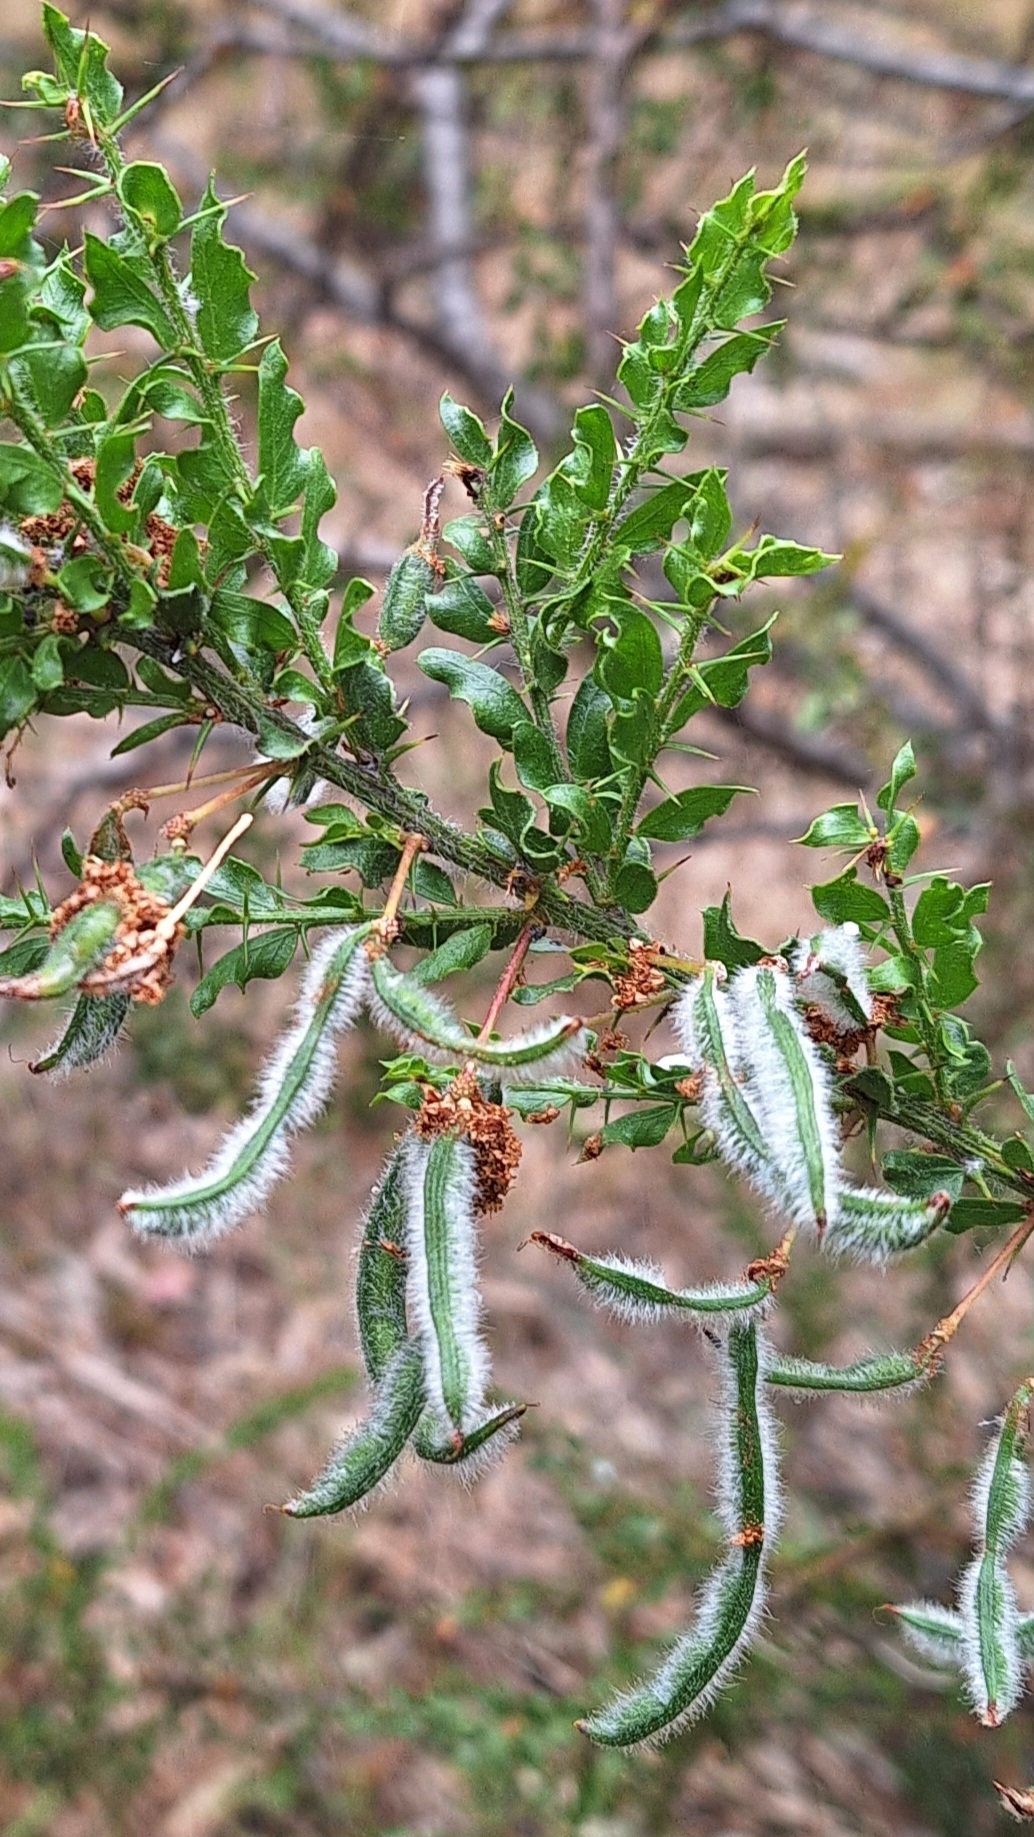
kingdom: Plantae
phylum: Tracheophyta
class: Magnoliopsida
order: Fabales
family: Fabaceae
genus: Acacia
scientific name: Acacia paradoxa
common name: Paradox acacia
